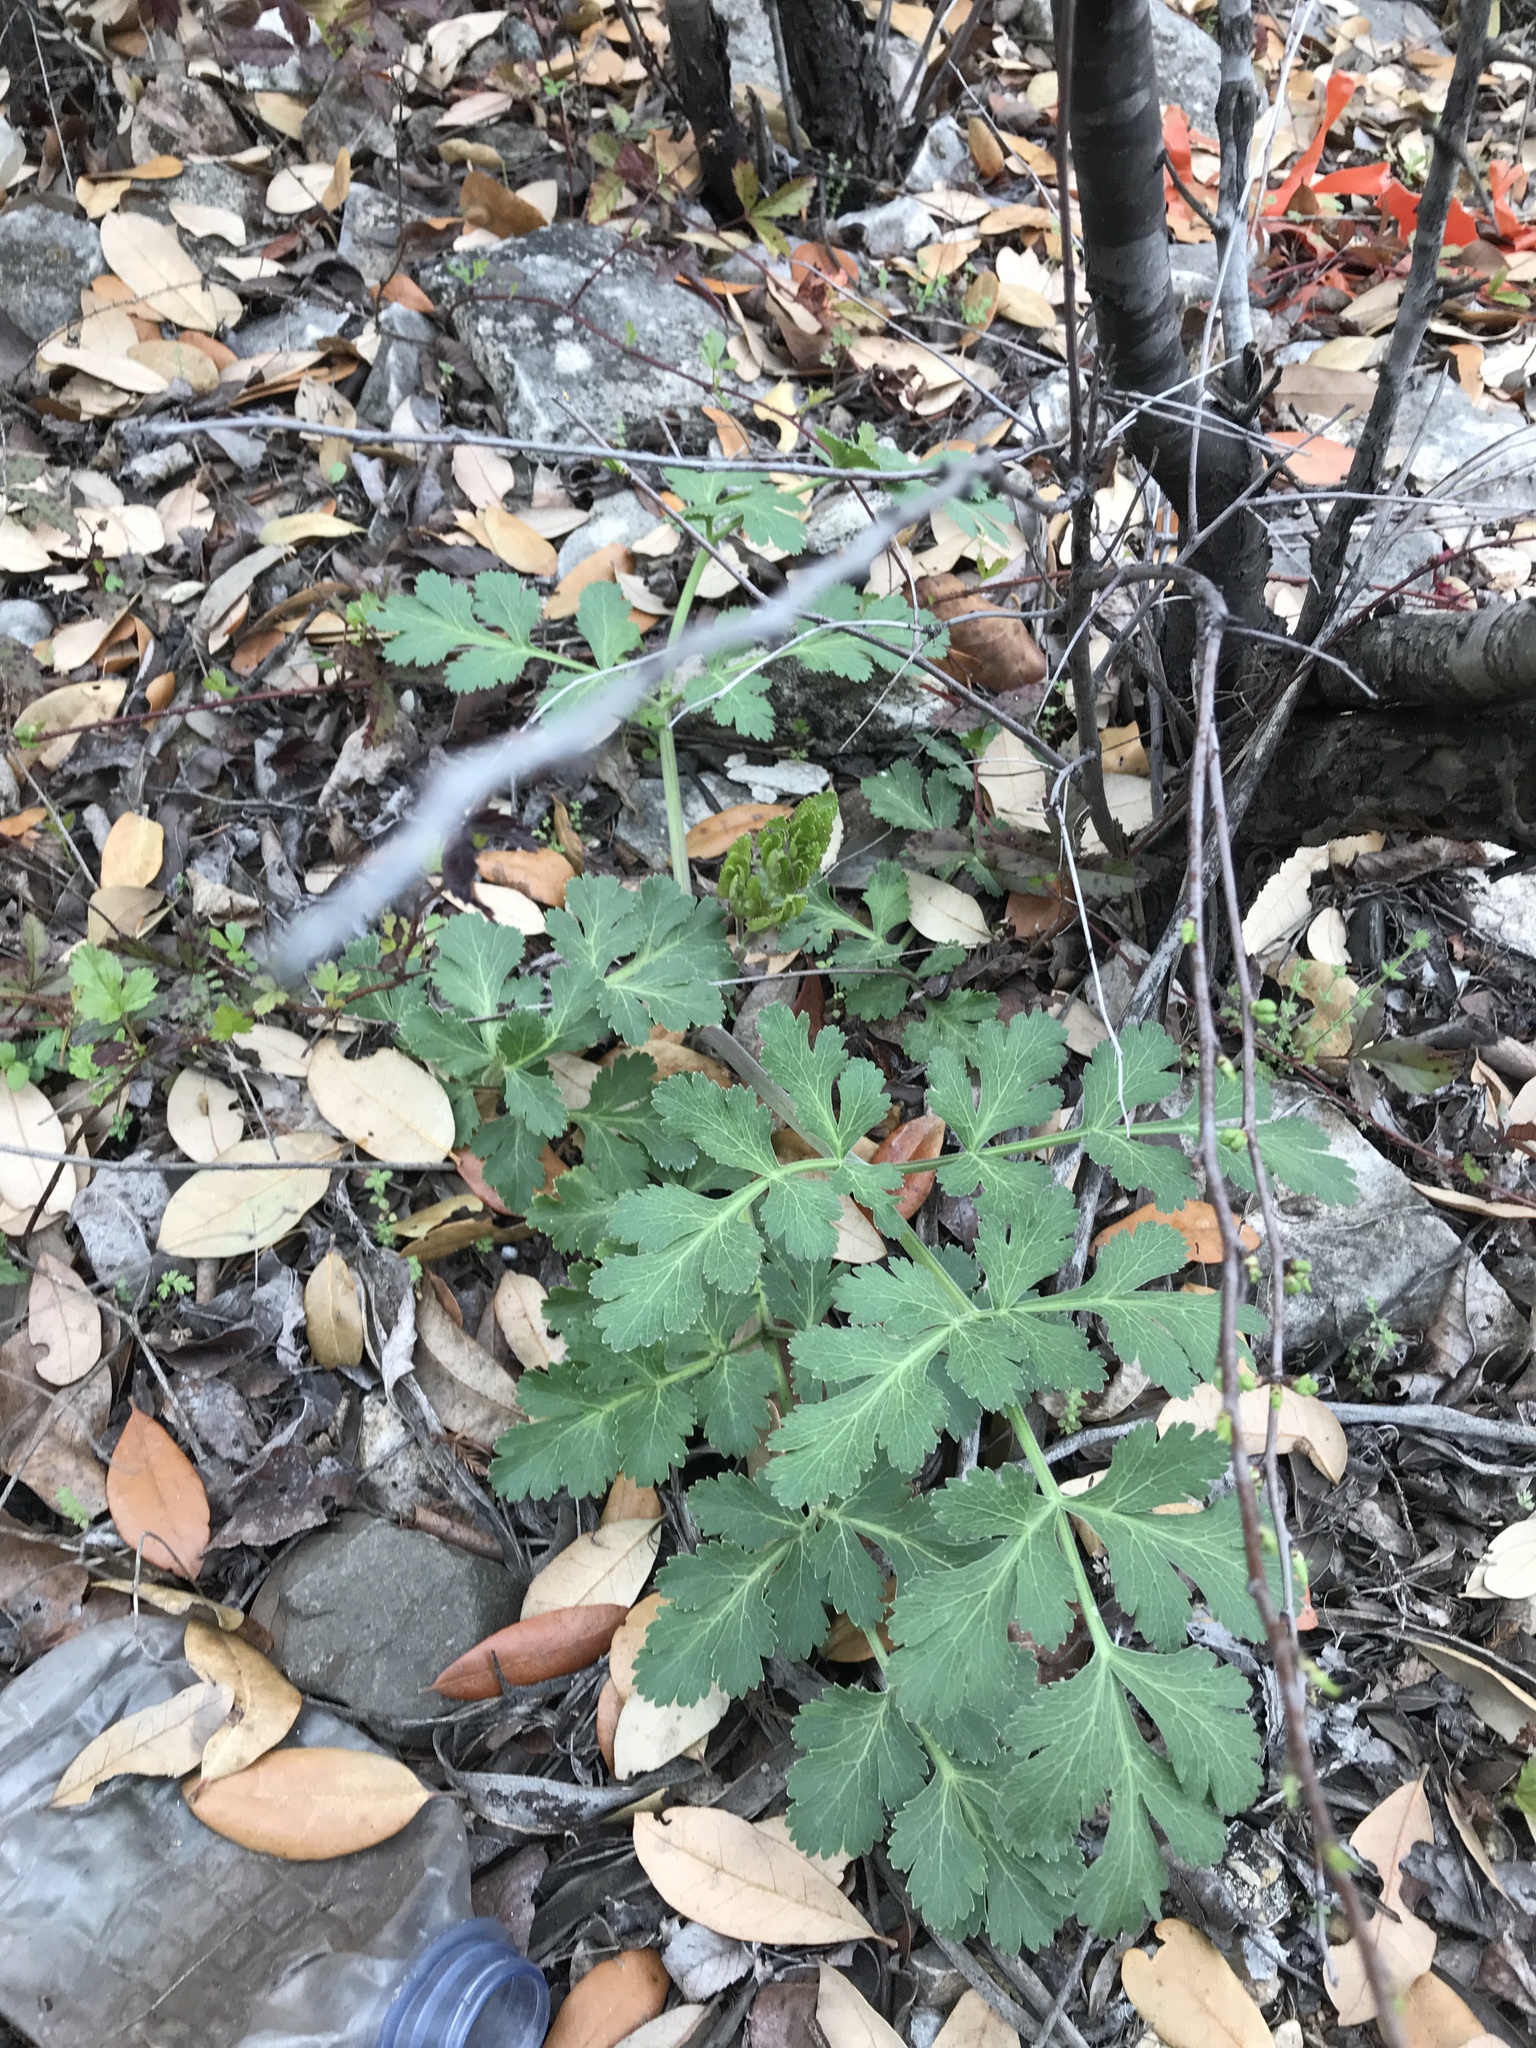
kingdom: Plantae
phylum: Tracheophyta
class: Magnoliopsida
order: Apiales
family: Apiaceae
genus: Polytaenia
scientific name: Polytaenia texana
